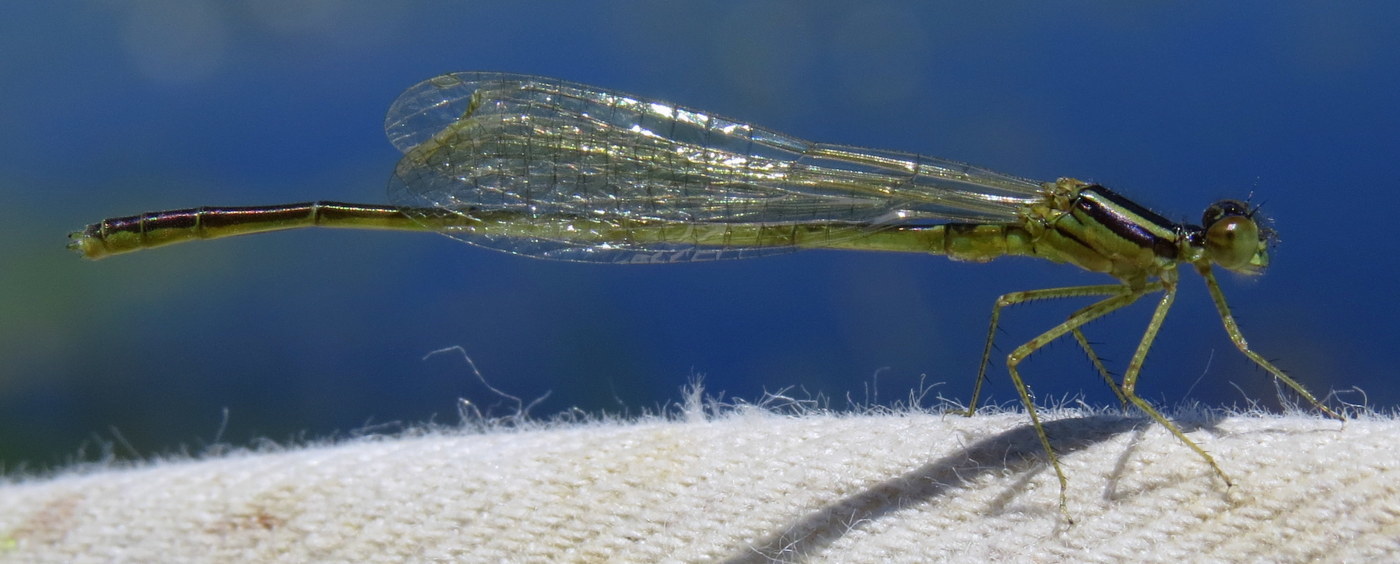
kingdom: Animalia
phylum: Arthropoda
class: Insecta
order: Odonata
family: Coenagrionidae
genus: Enallagma
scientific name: Enallagma pictum
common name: Scarlet bluet
